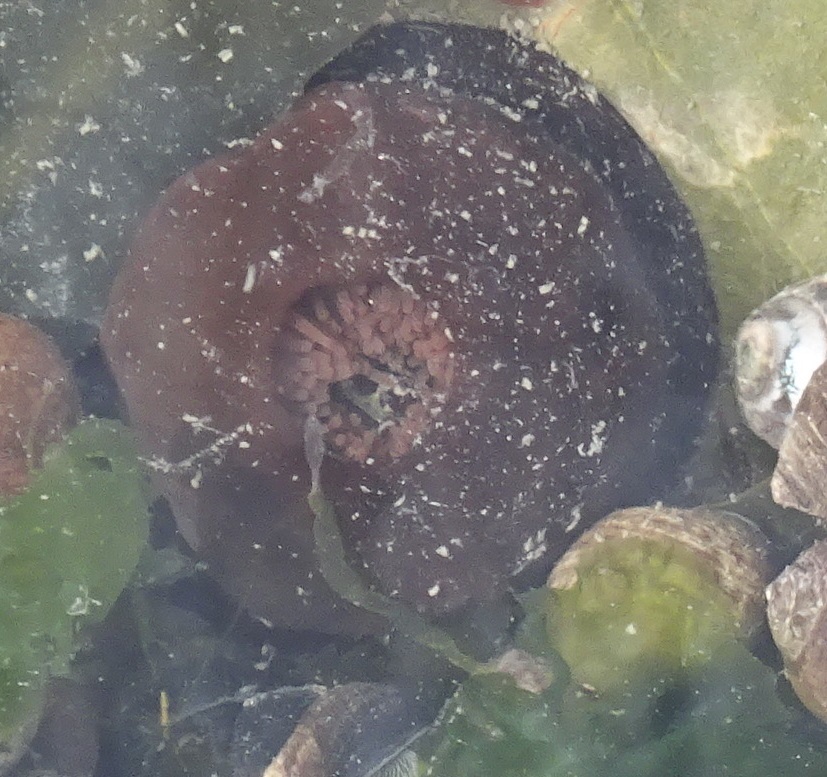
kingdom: Animalia
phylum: Cnidaria
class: Anthozoa
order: Actiniaria
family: Actiniidae
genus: Actinia
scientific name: Actinia equina
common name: Beadlet anemone
